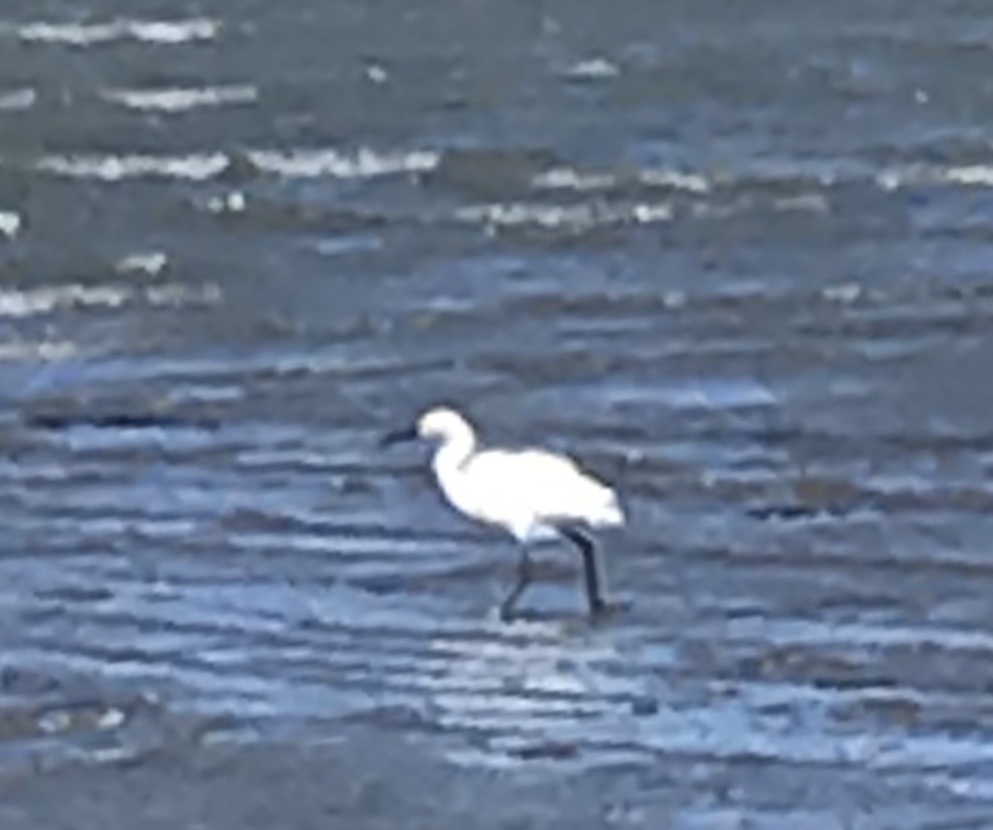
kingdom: Animalia
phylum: Chordata
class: Aves
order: Pelecaniformes
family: Ardeidae
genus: Egretta
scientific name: Egretta thula
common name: Snowy egret
